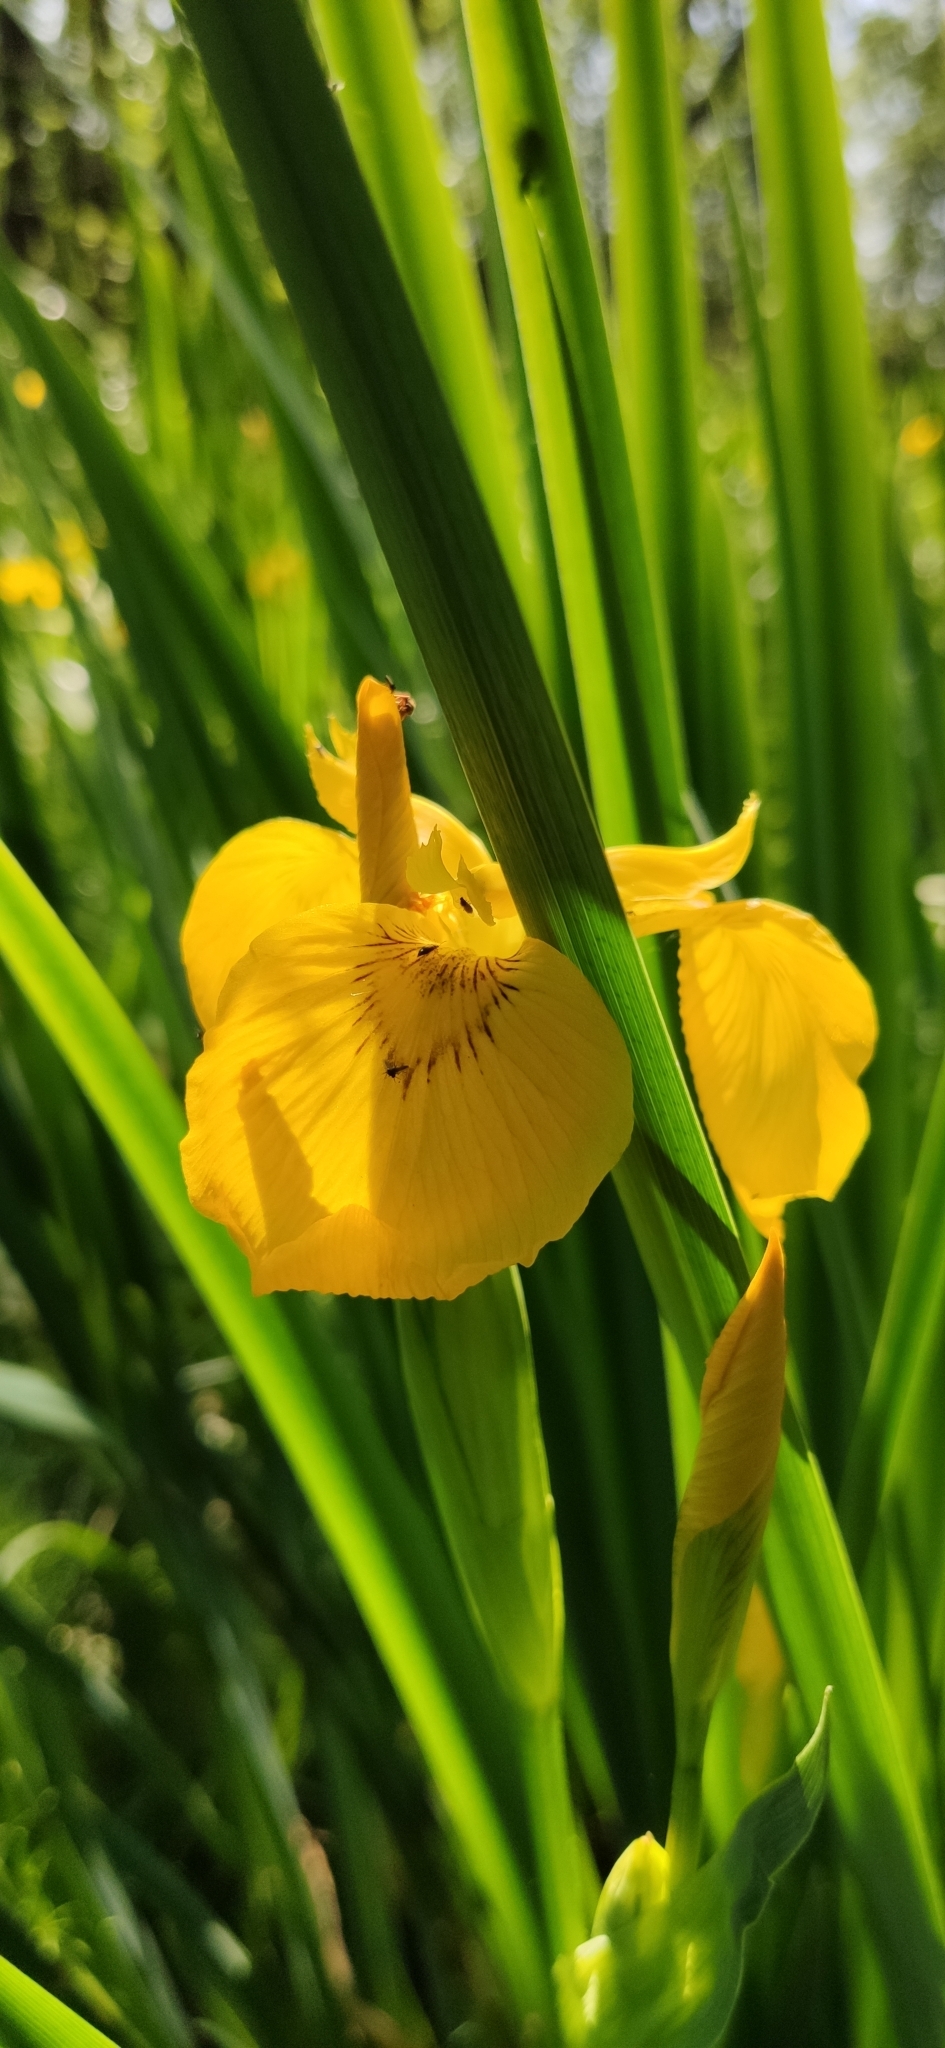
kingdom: Plantae
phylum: Tracheophyta
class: Liliopsida
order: Asparagales
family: Iridaceae
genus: Iris
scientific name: Iris pseudacorus
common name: Yellow flag
